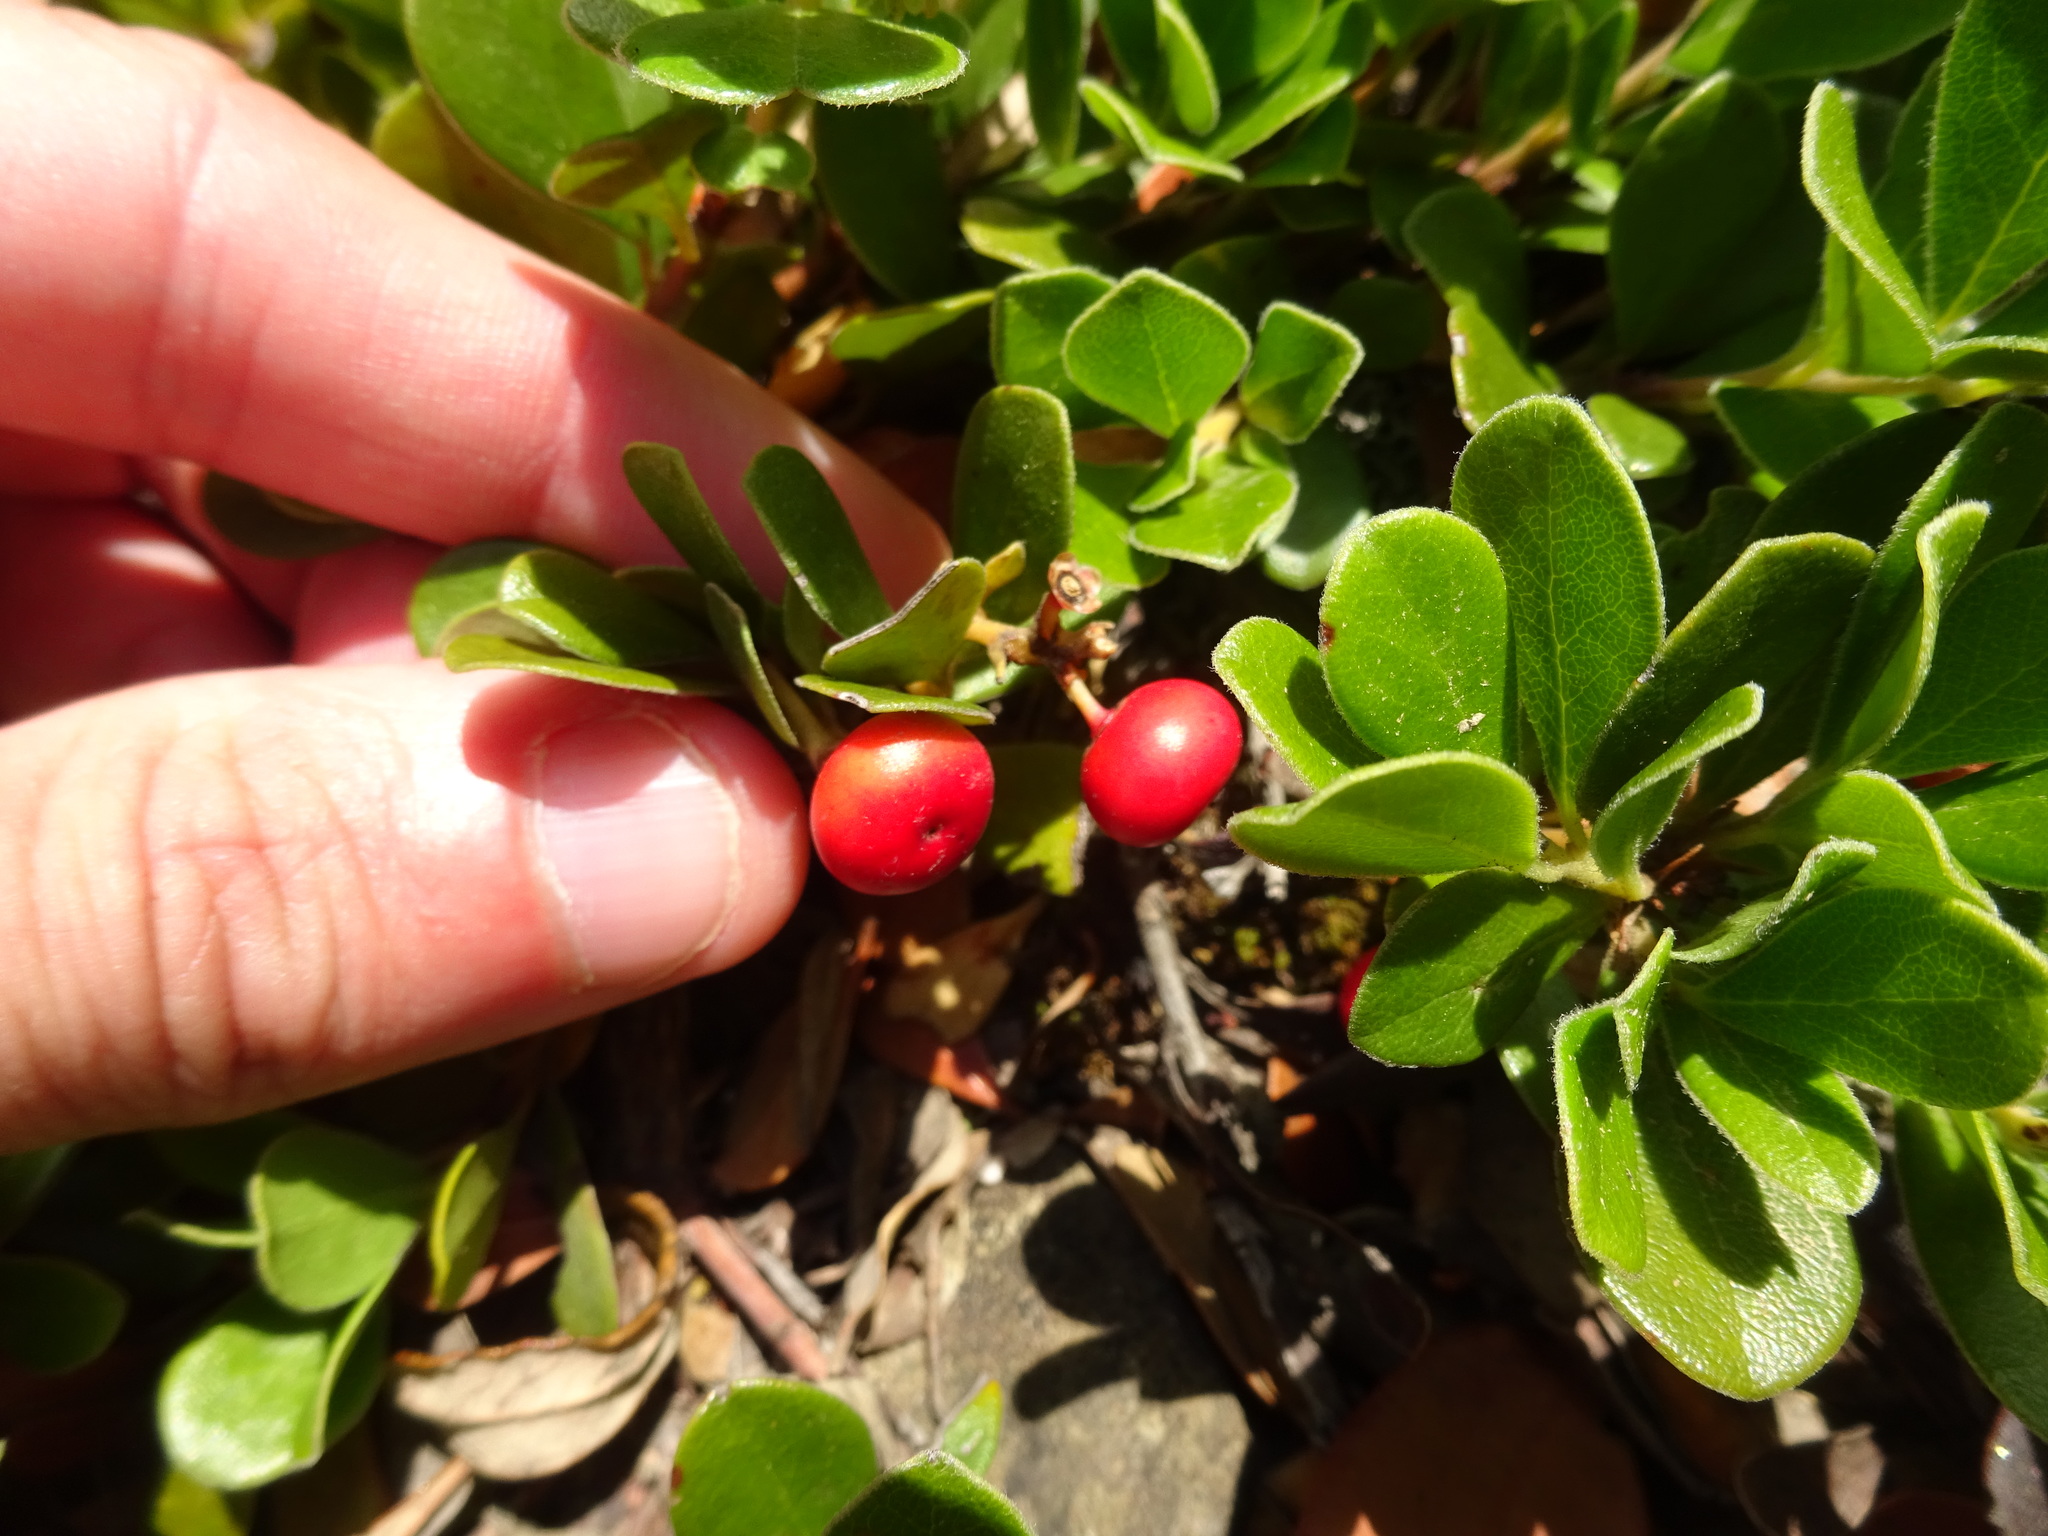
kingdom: Plantae
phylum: Tracheophyta
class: Magnoliopsida
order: Ericales
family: Ericaceae
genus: Arctostaphylos
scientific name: Arctostaphylos uva-ursi
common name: Bearberry
